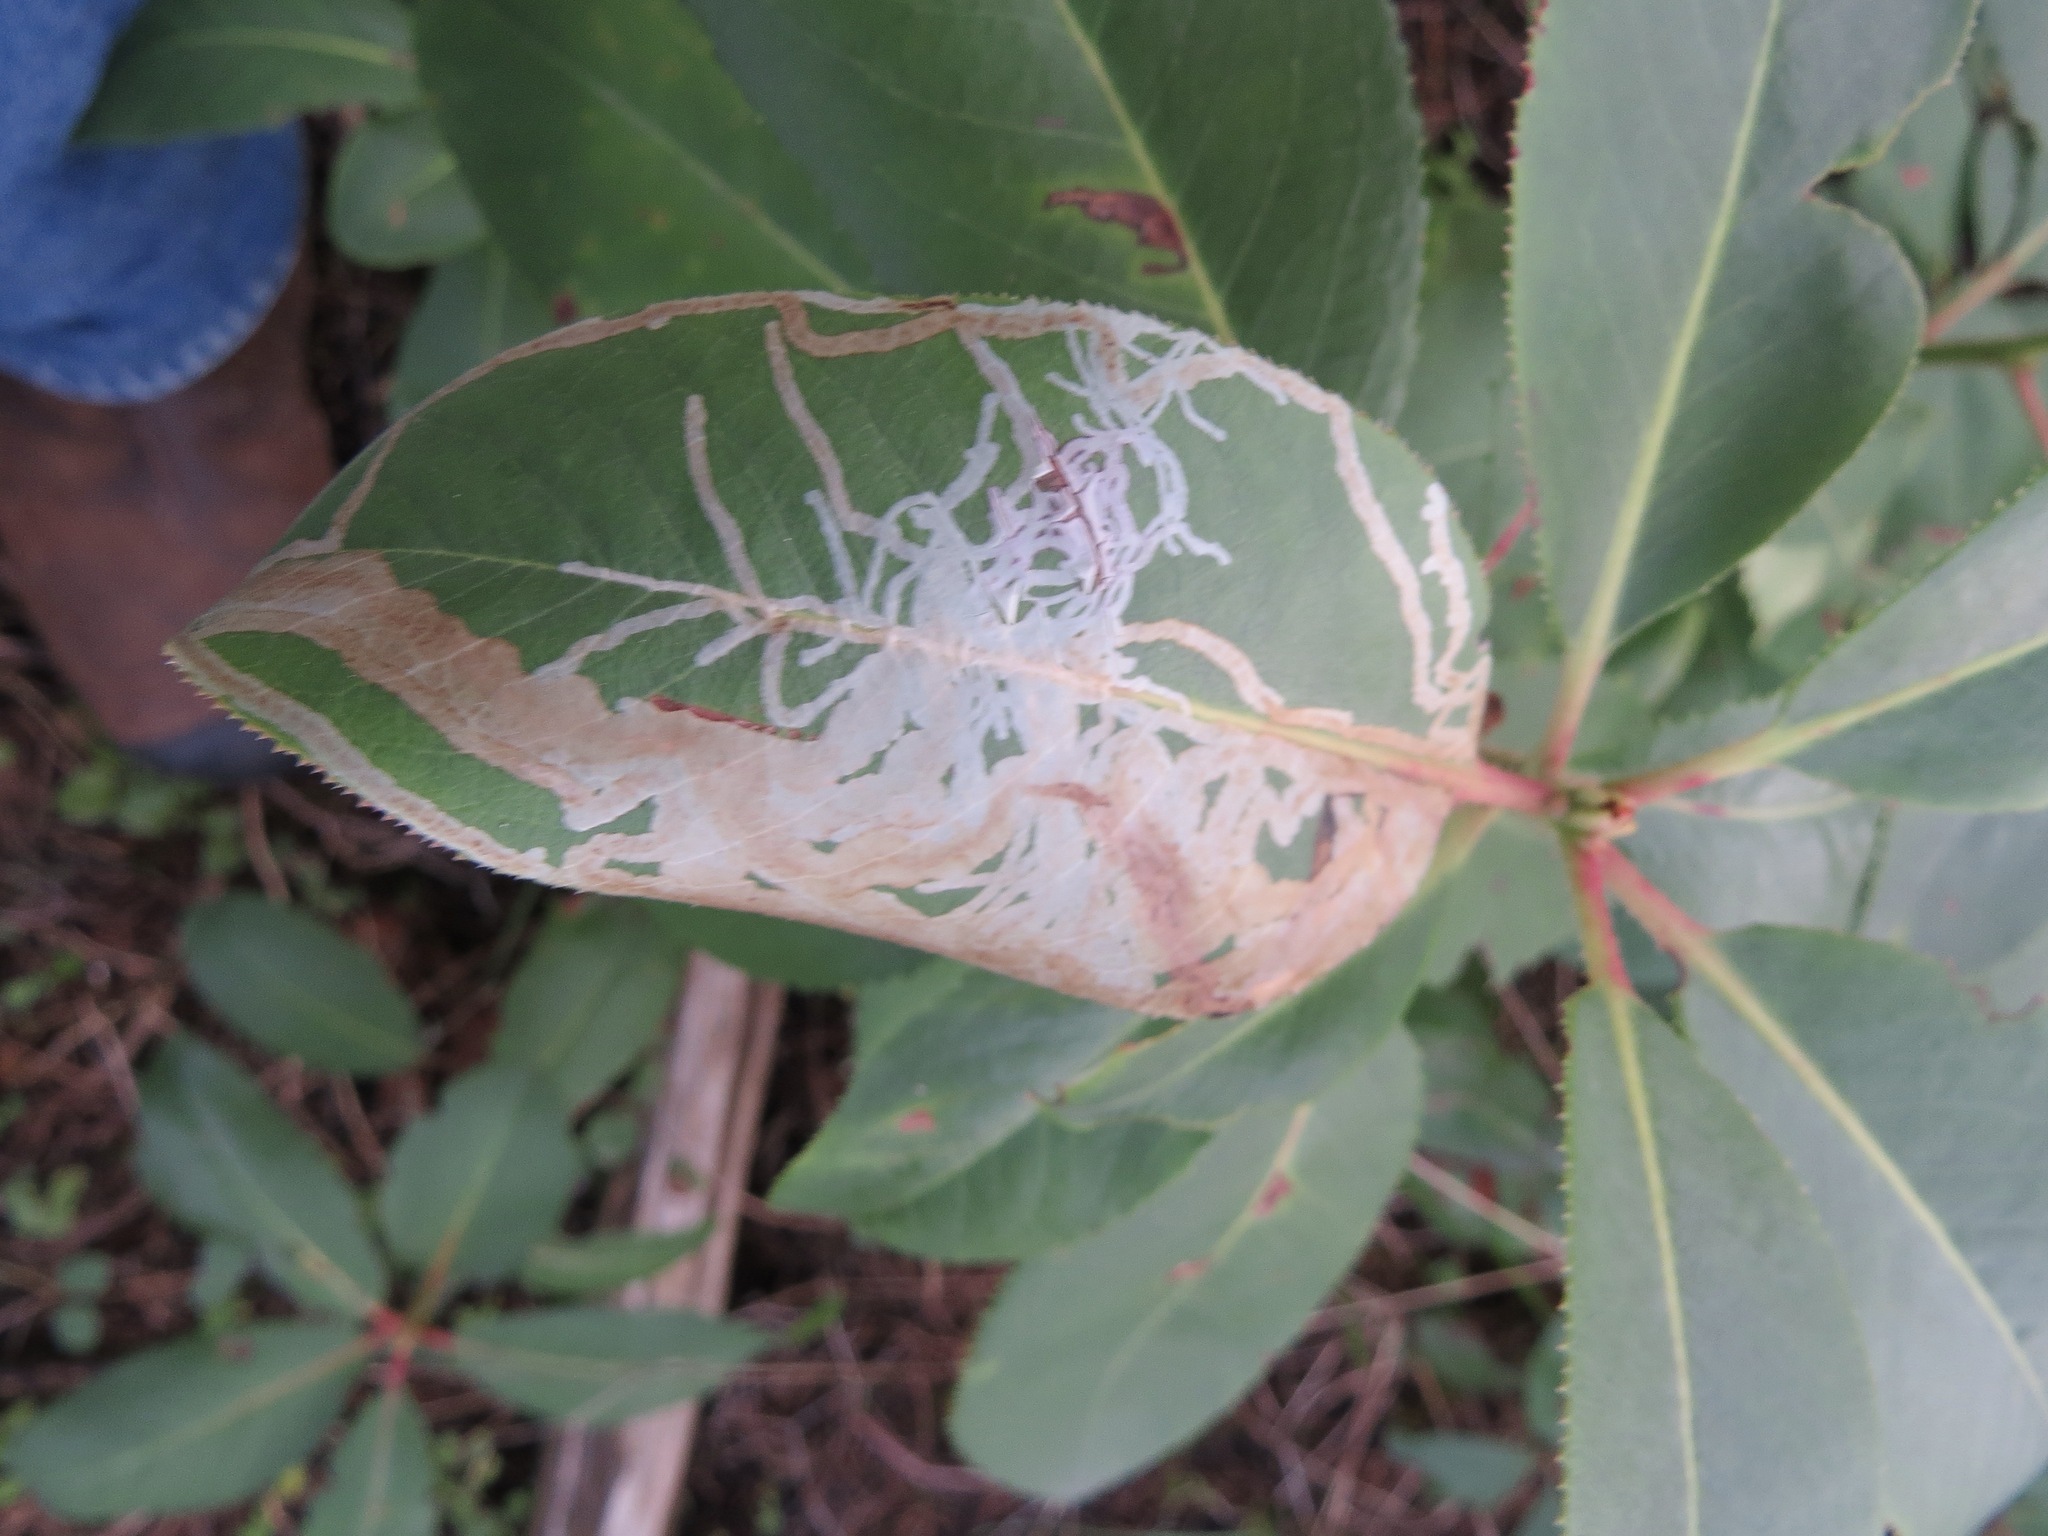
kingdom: Animalia
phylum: Arthropoda
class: Insecta
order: Lepidoptera
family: Gracillariidae
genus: Marmara
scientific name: Marmara arbutiella
